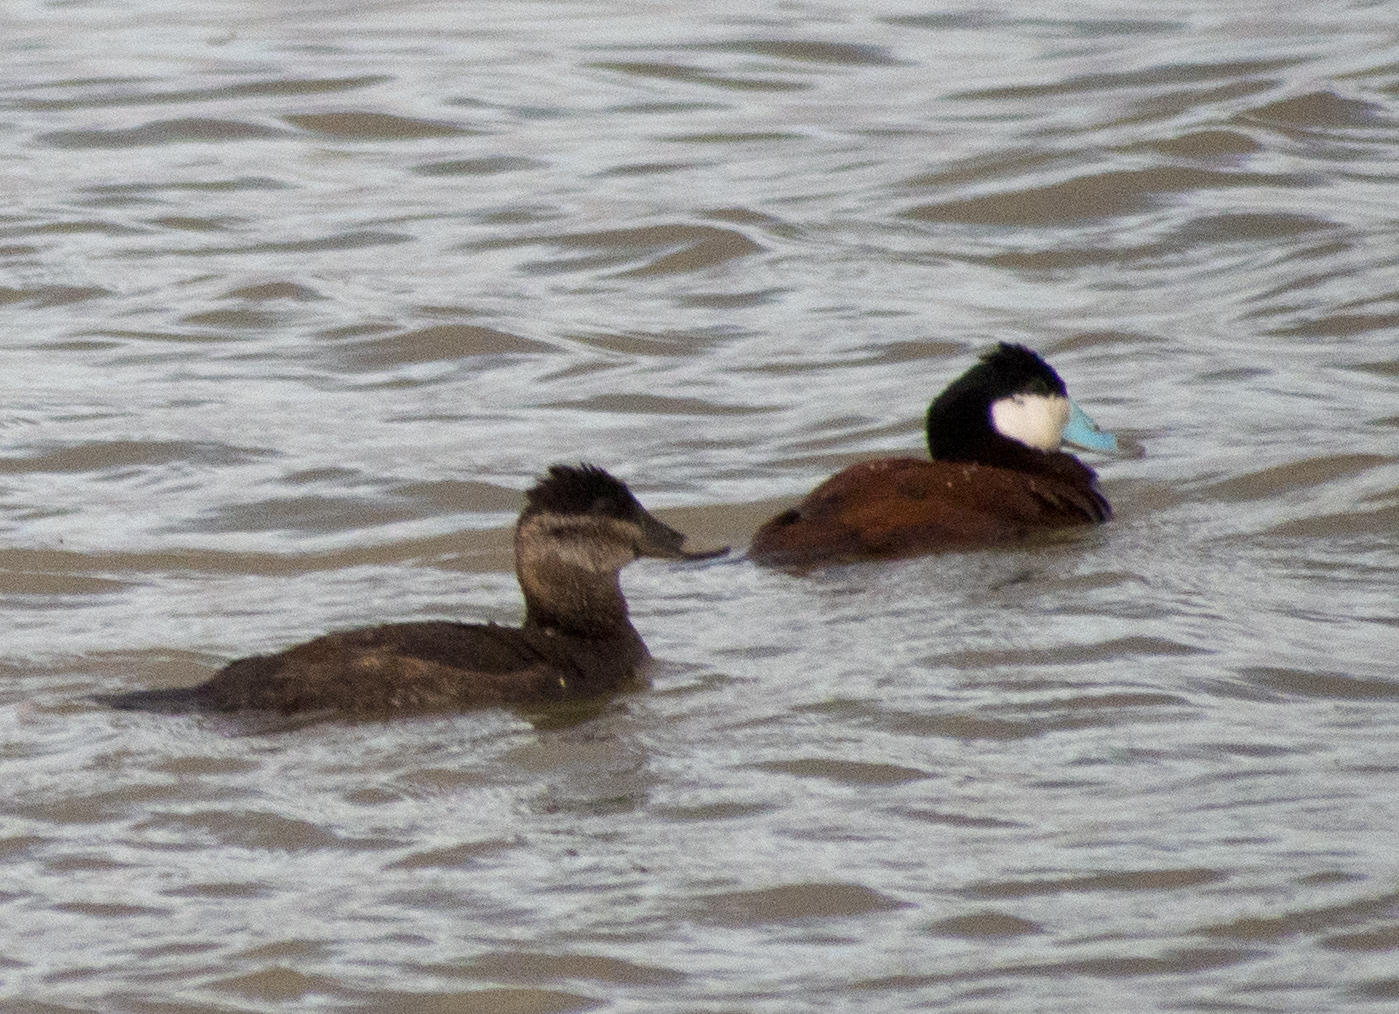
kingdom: Animalia
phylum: Chordata
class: Aves
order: Anseriformes
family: Anatidae
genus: Oxyura
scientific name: Oxyura jamaicensis
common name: Ruddy duck
